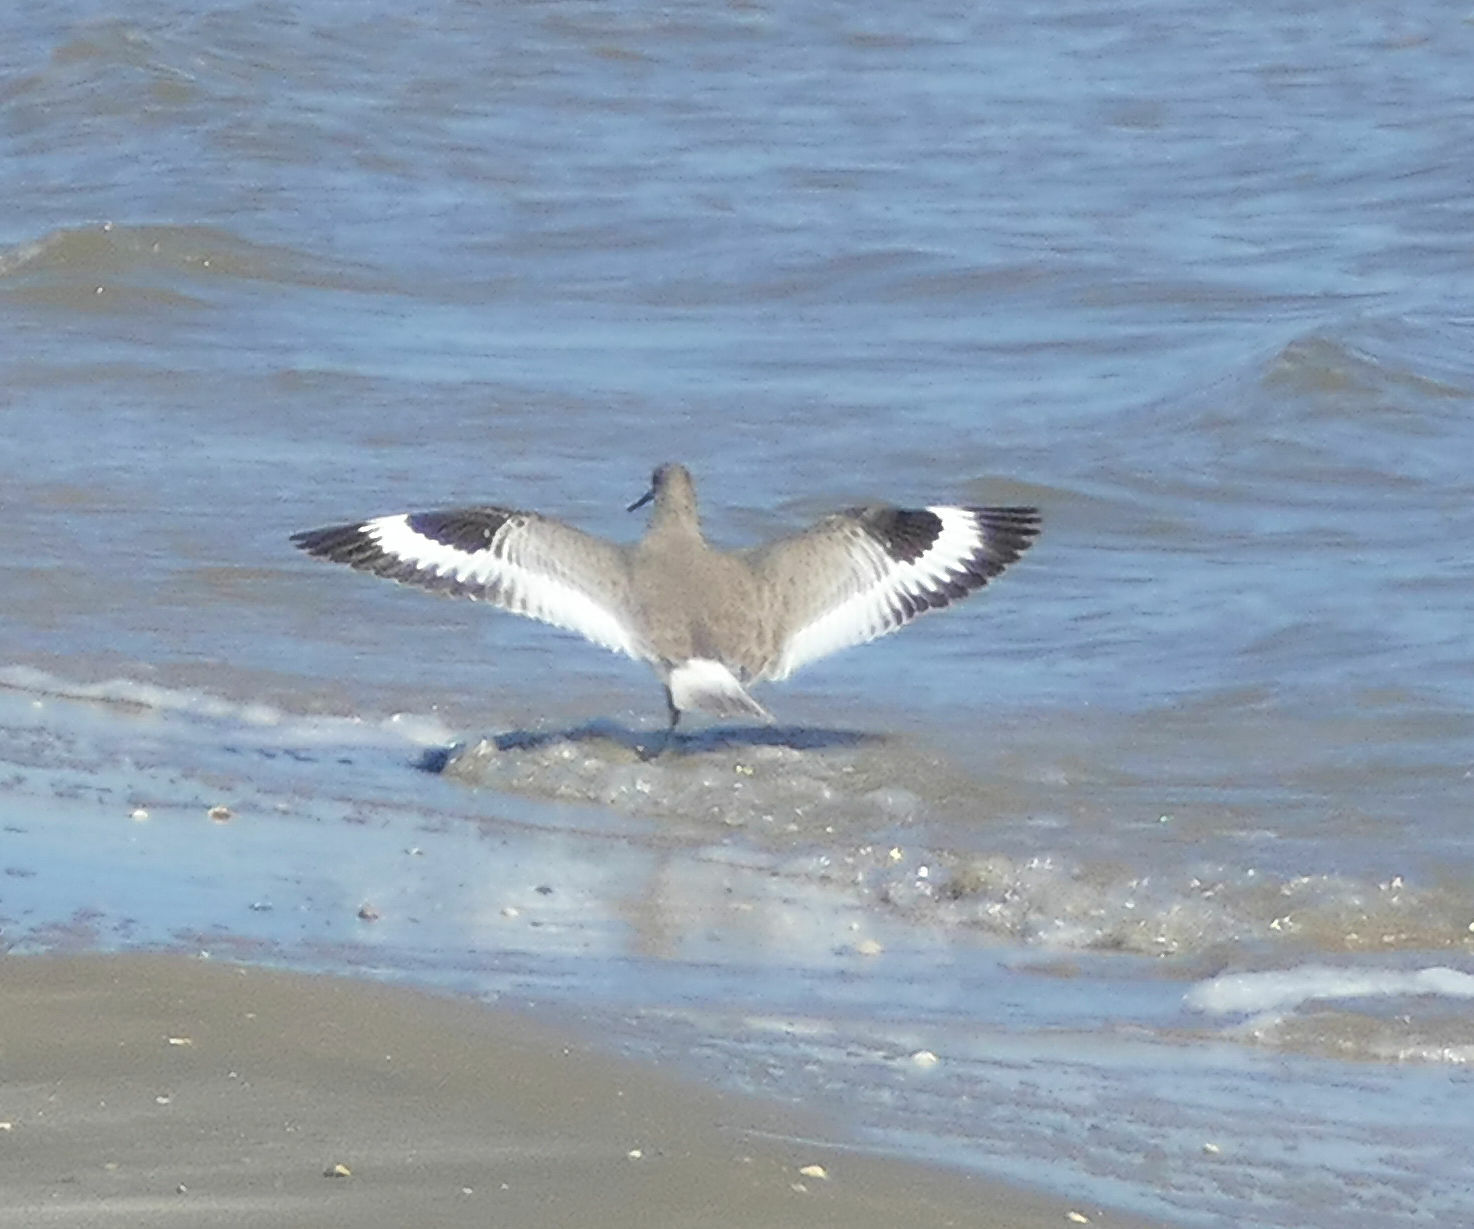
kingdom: Animalia
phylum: Chordata
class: Aves
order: Charadriiformes
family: Scolopacidae
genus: Tringa
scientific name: Tringa semipalmata
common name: Willet
